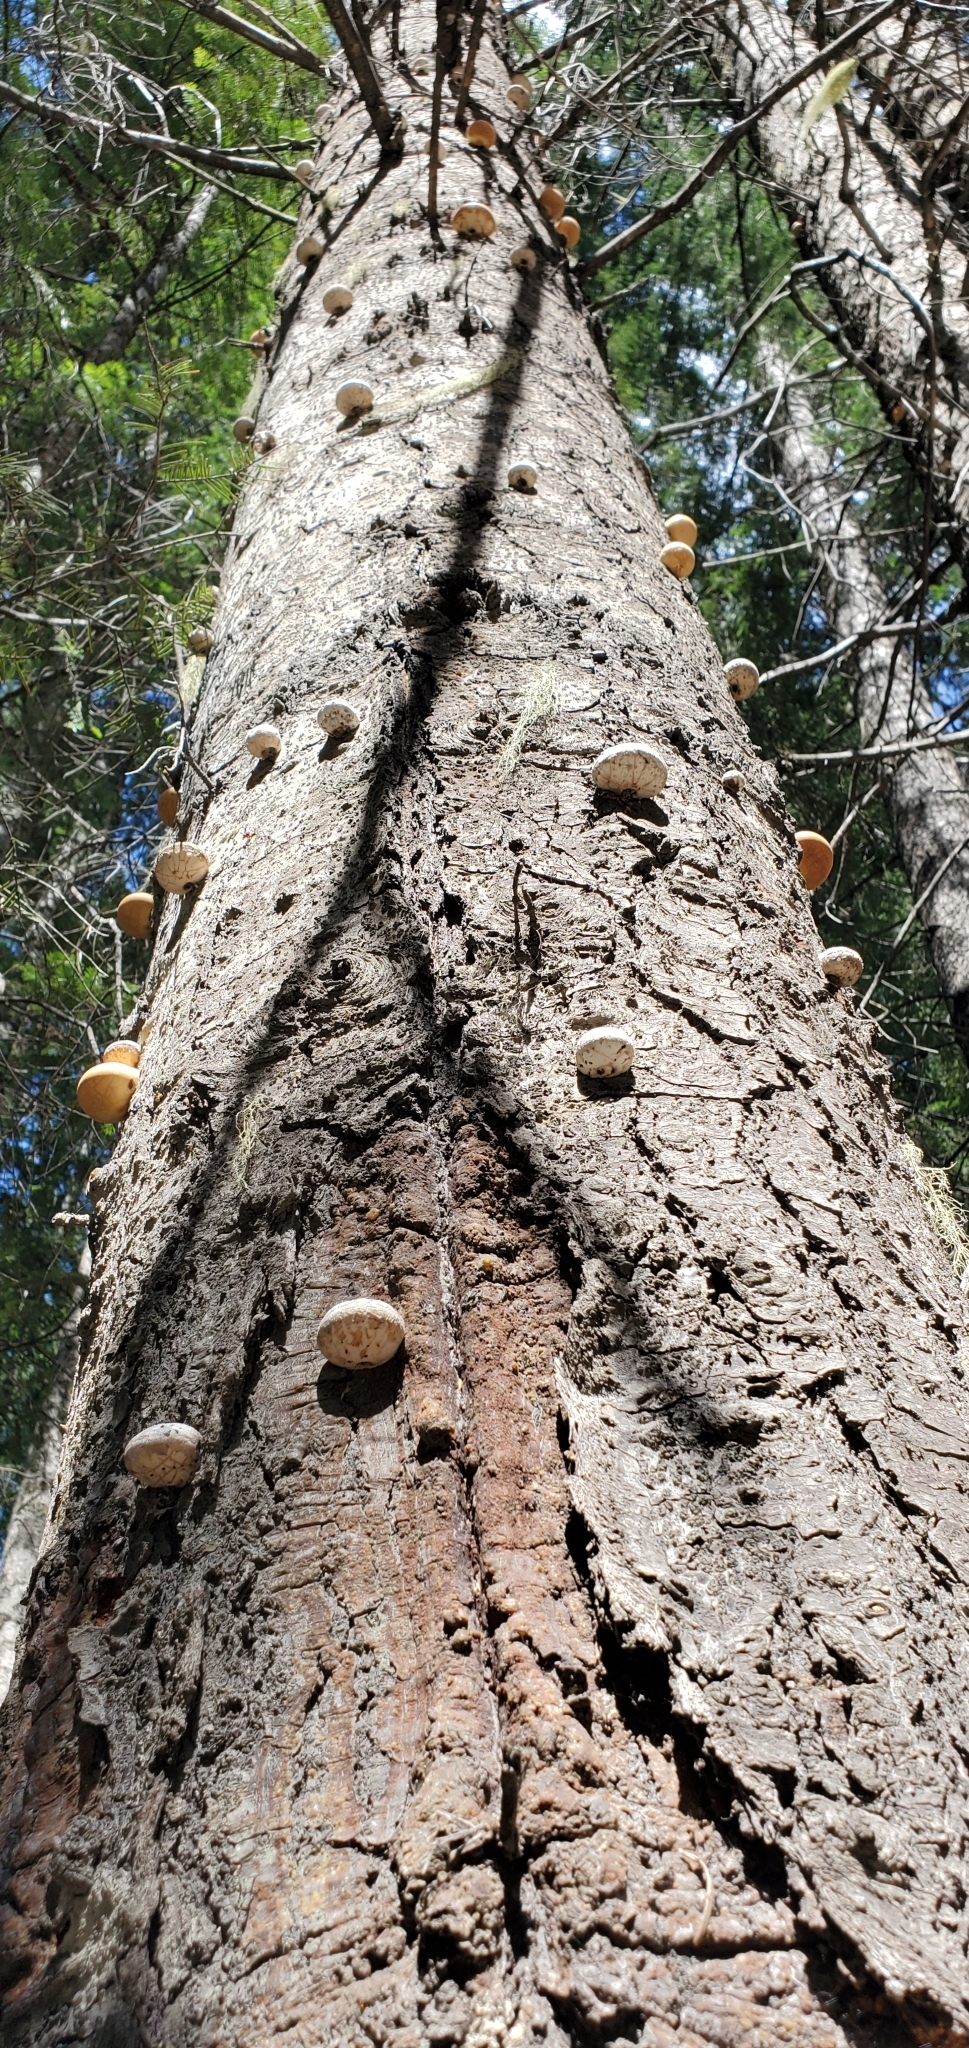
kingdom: Fungi
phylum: Basidiomycota
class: Agaricomycetes
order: Polyporales
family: Polyporaceae
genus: Cryptoporus
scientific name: Cryptoporus volvatus
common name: Veiled polypore
